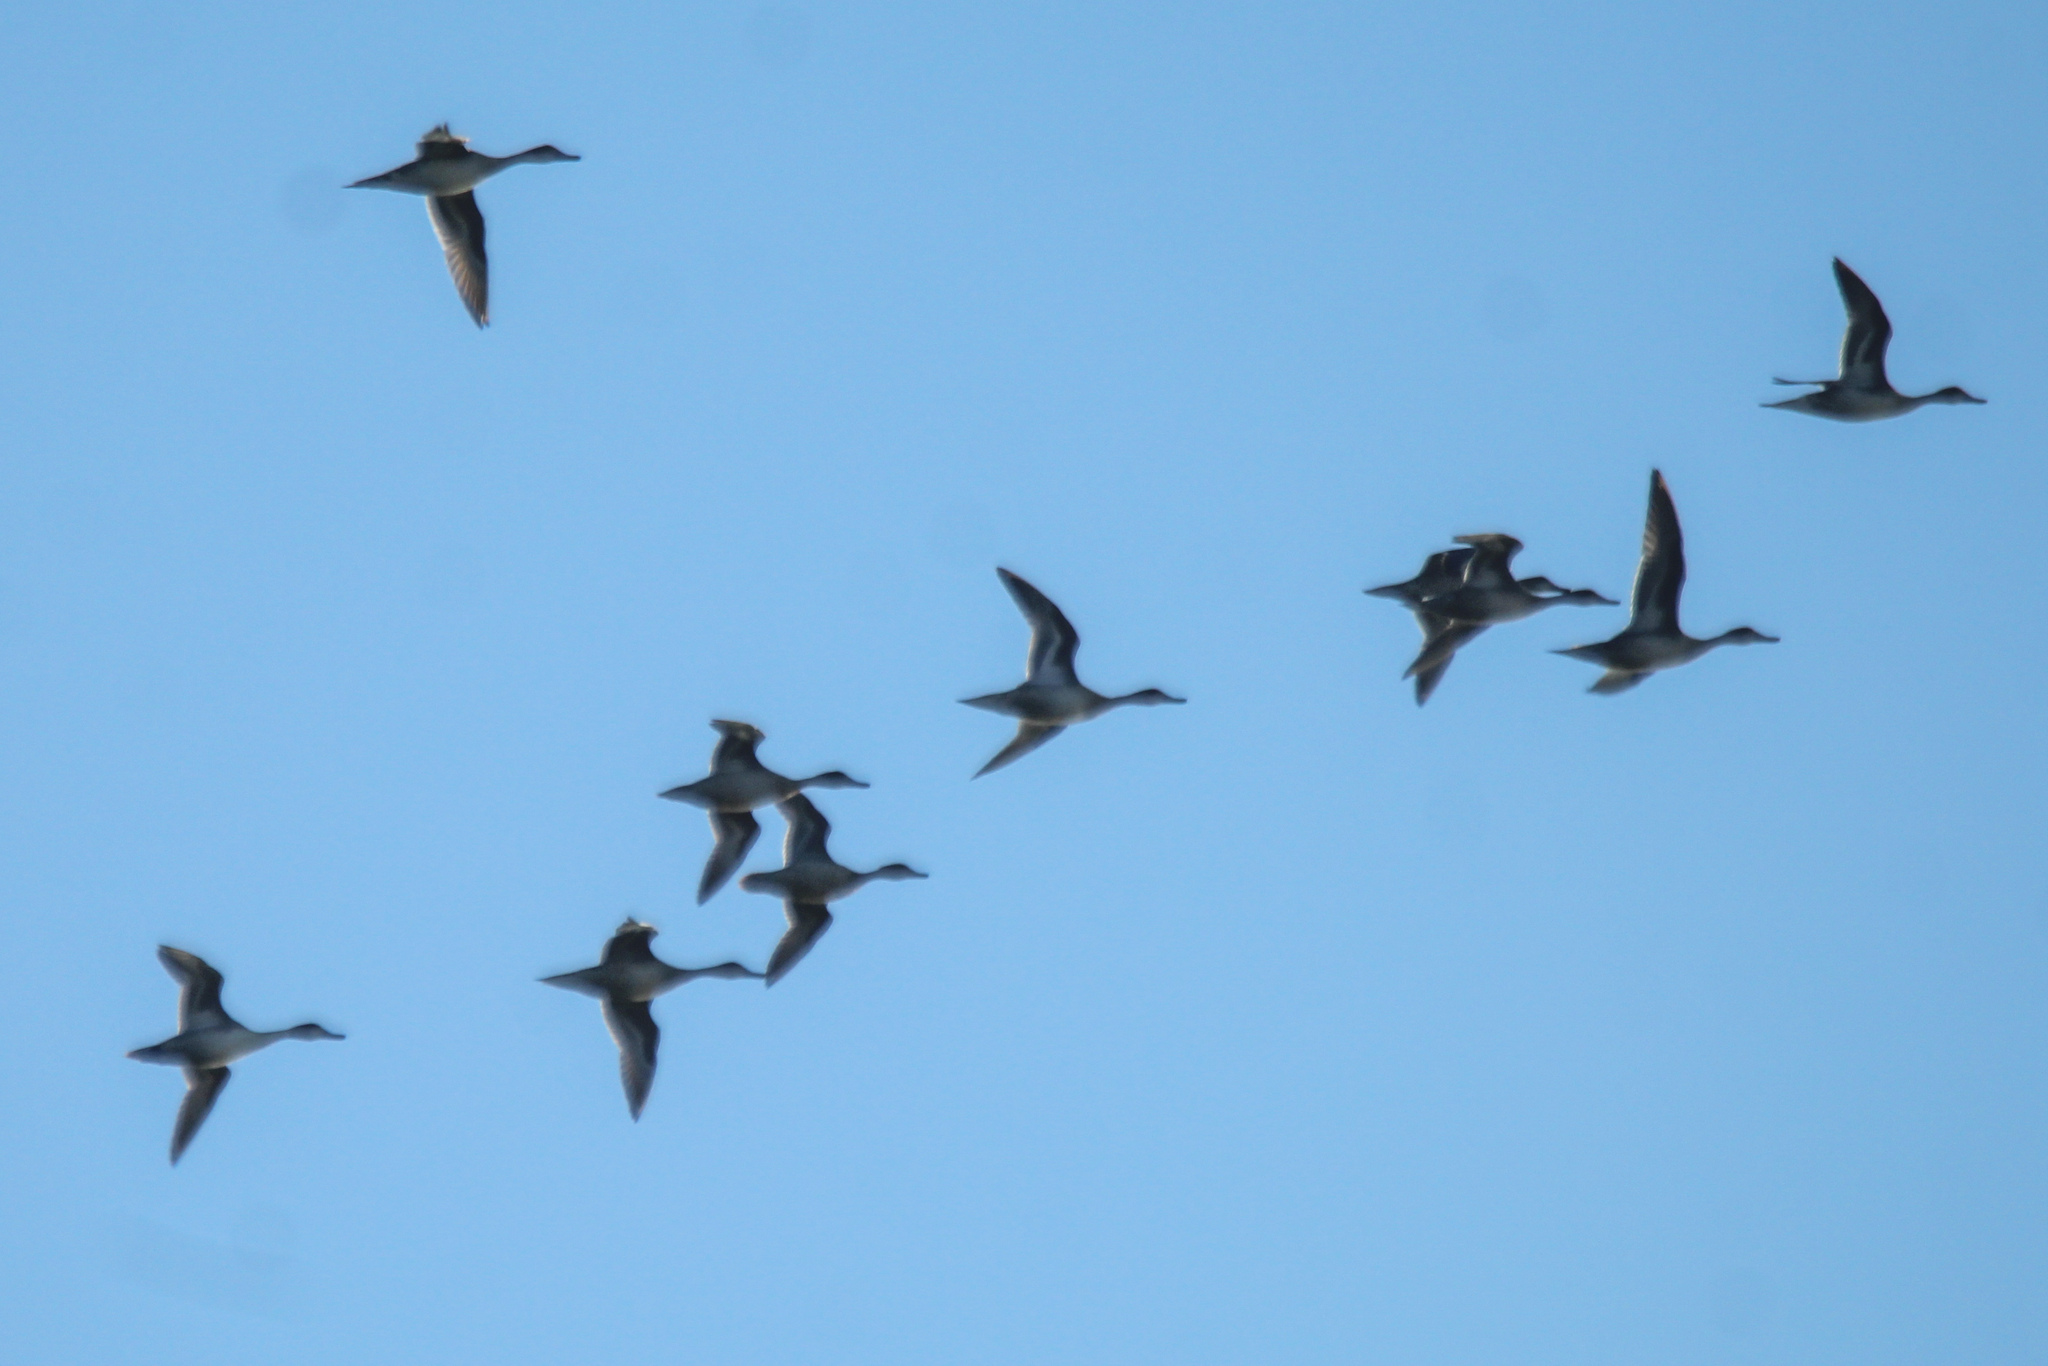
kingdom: Animalia
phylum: Chordata
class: Aves
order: Anseriformes
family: Anatidae
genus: Anas
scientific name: Anas acuta
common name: Northern pintail
